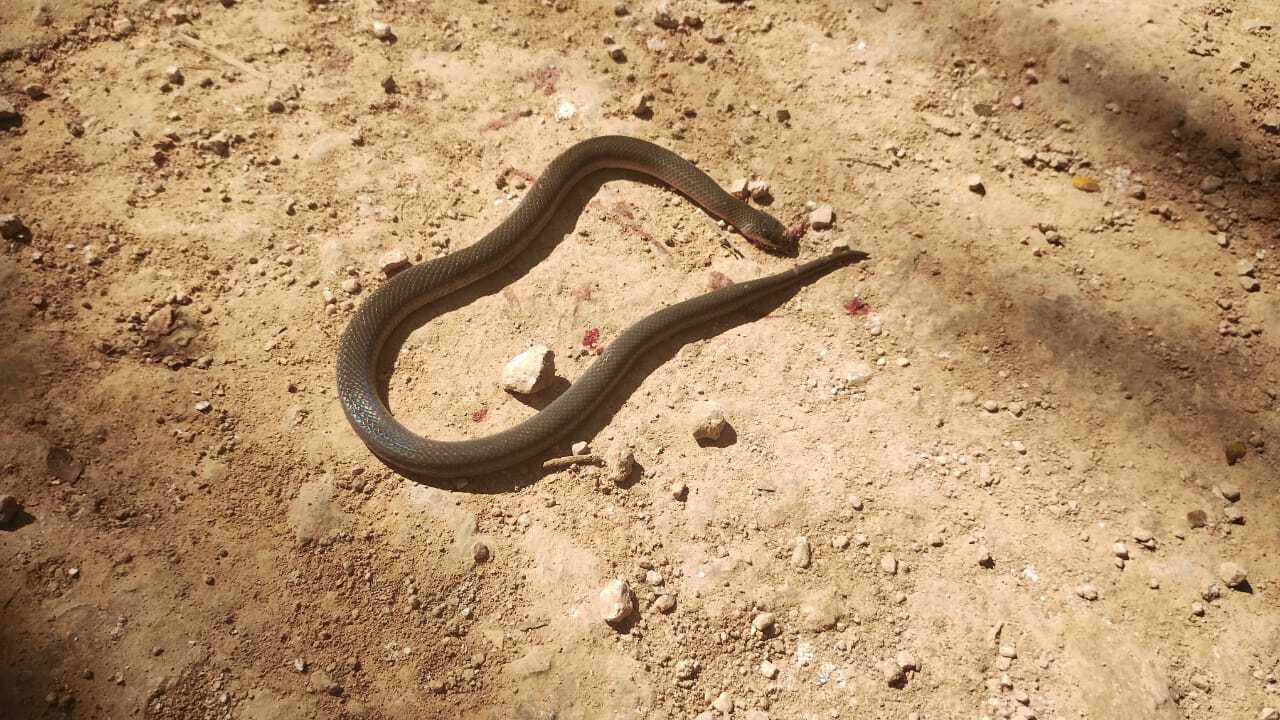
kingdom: Animalia
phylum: Chordata
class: Squamata
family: Colubridae
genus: Stenorrhina
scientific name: Stenorrhina freminvillei
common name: Blood snake
